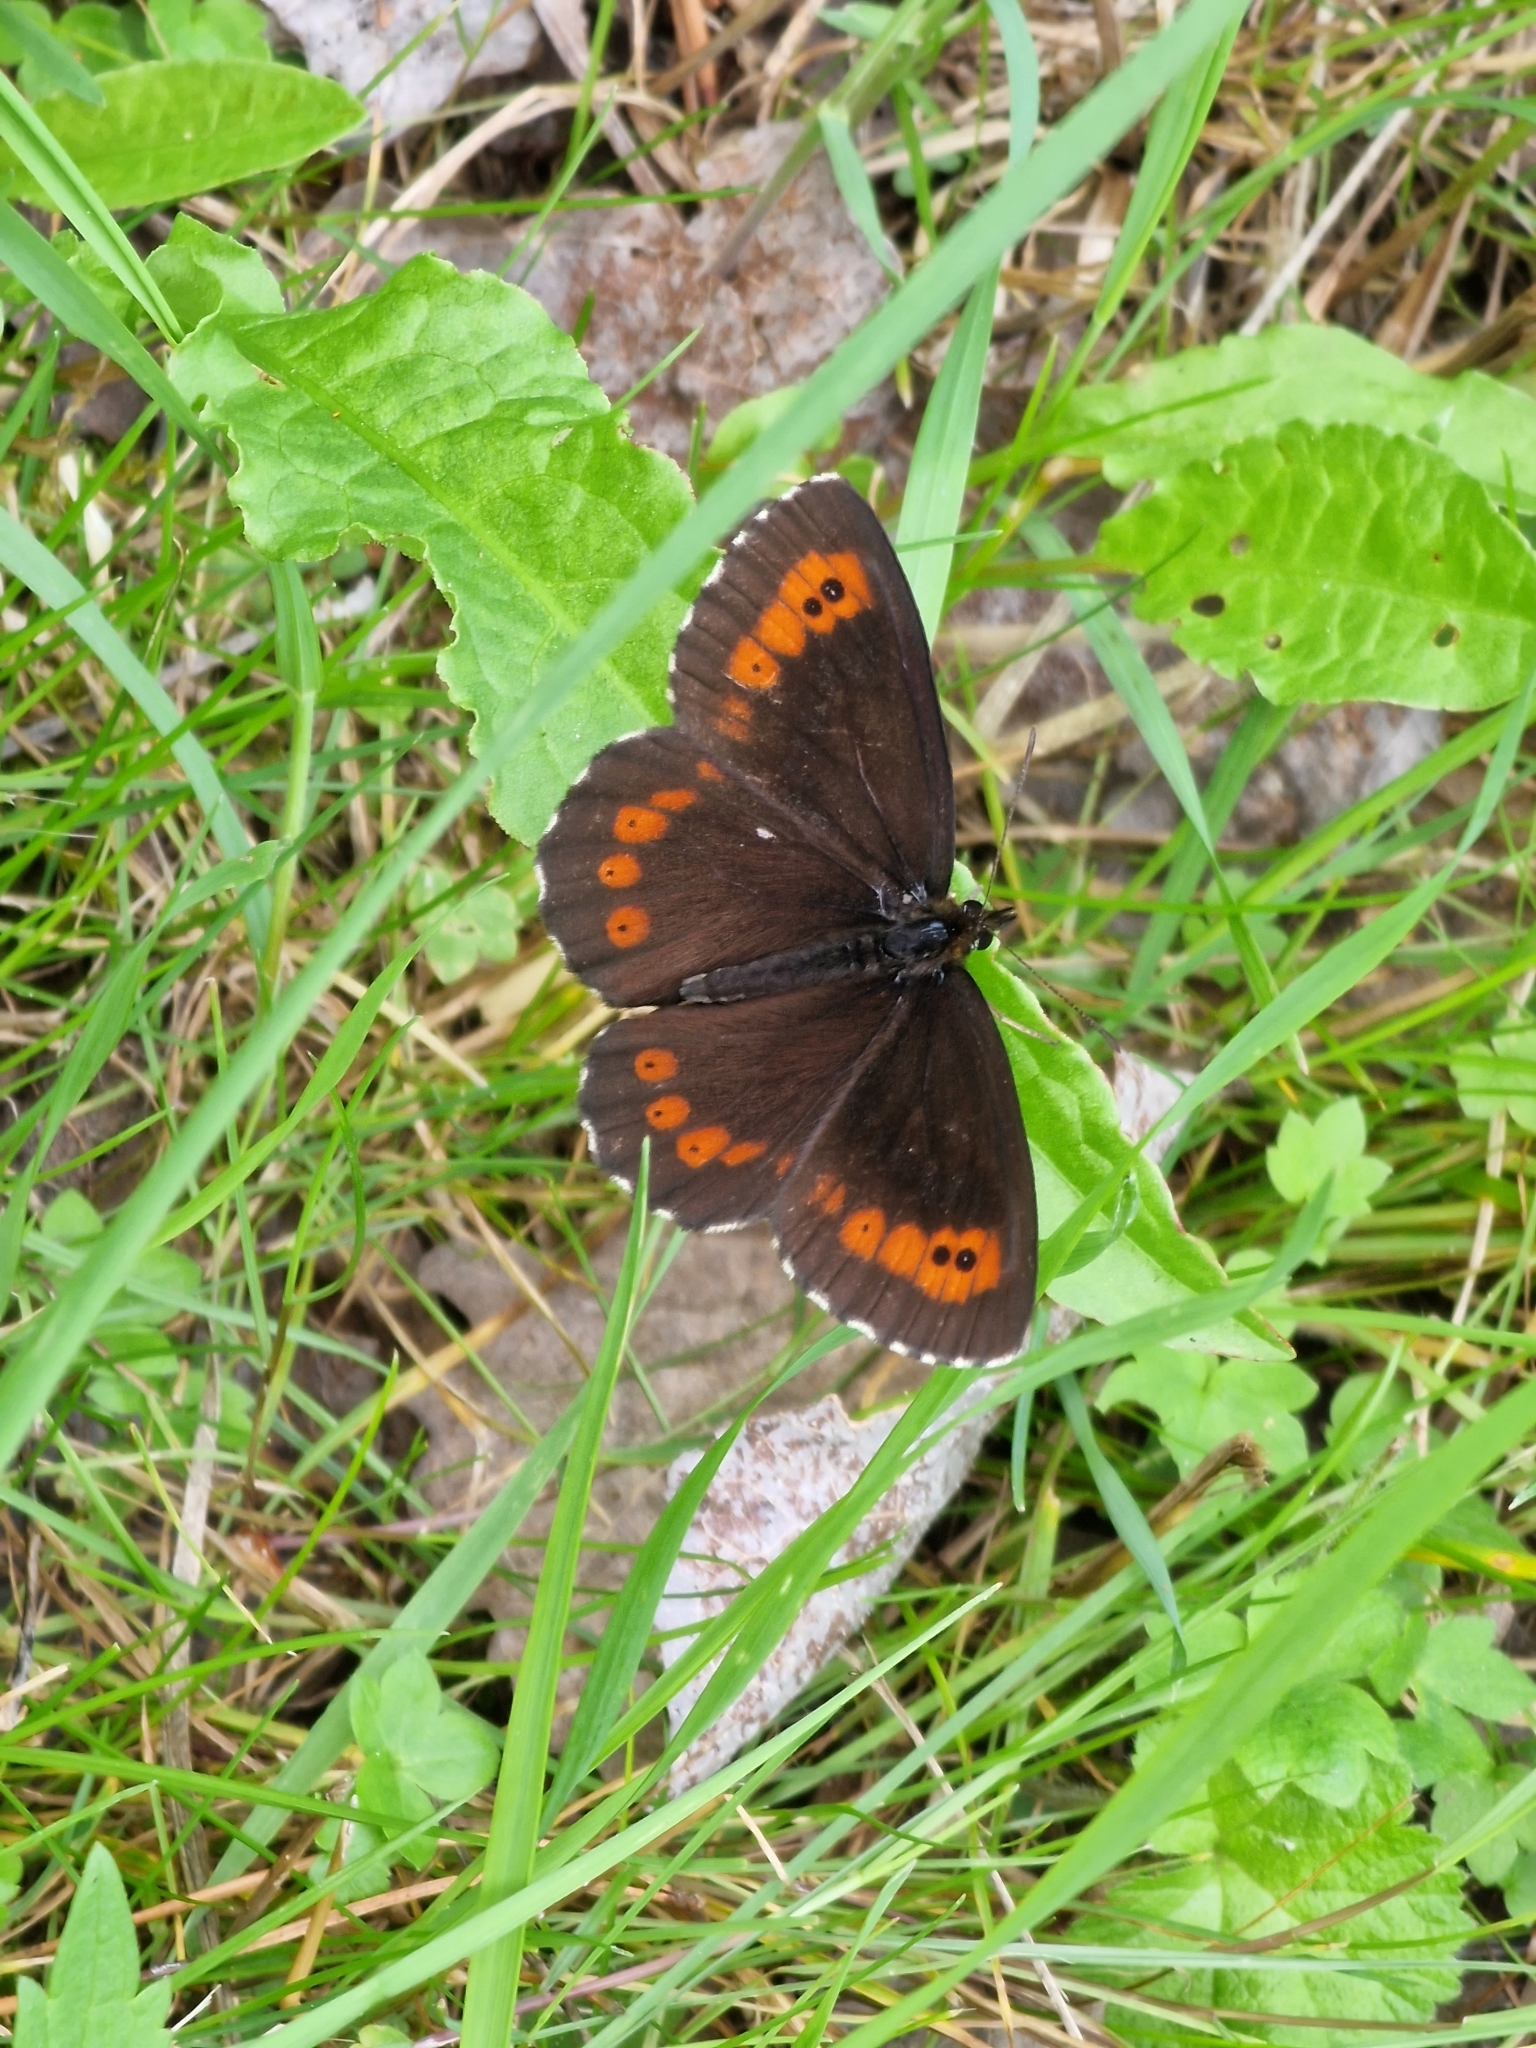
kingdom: Animalia
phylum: Arthropoda
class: Insecta
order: Lepidoptera
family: Nymphalidae
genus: Erebia
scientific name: Erebia ligea
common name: Arran brown
